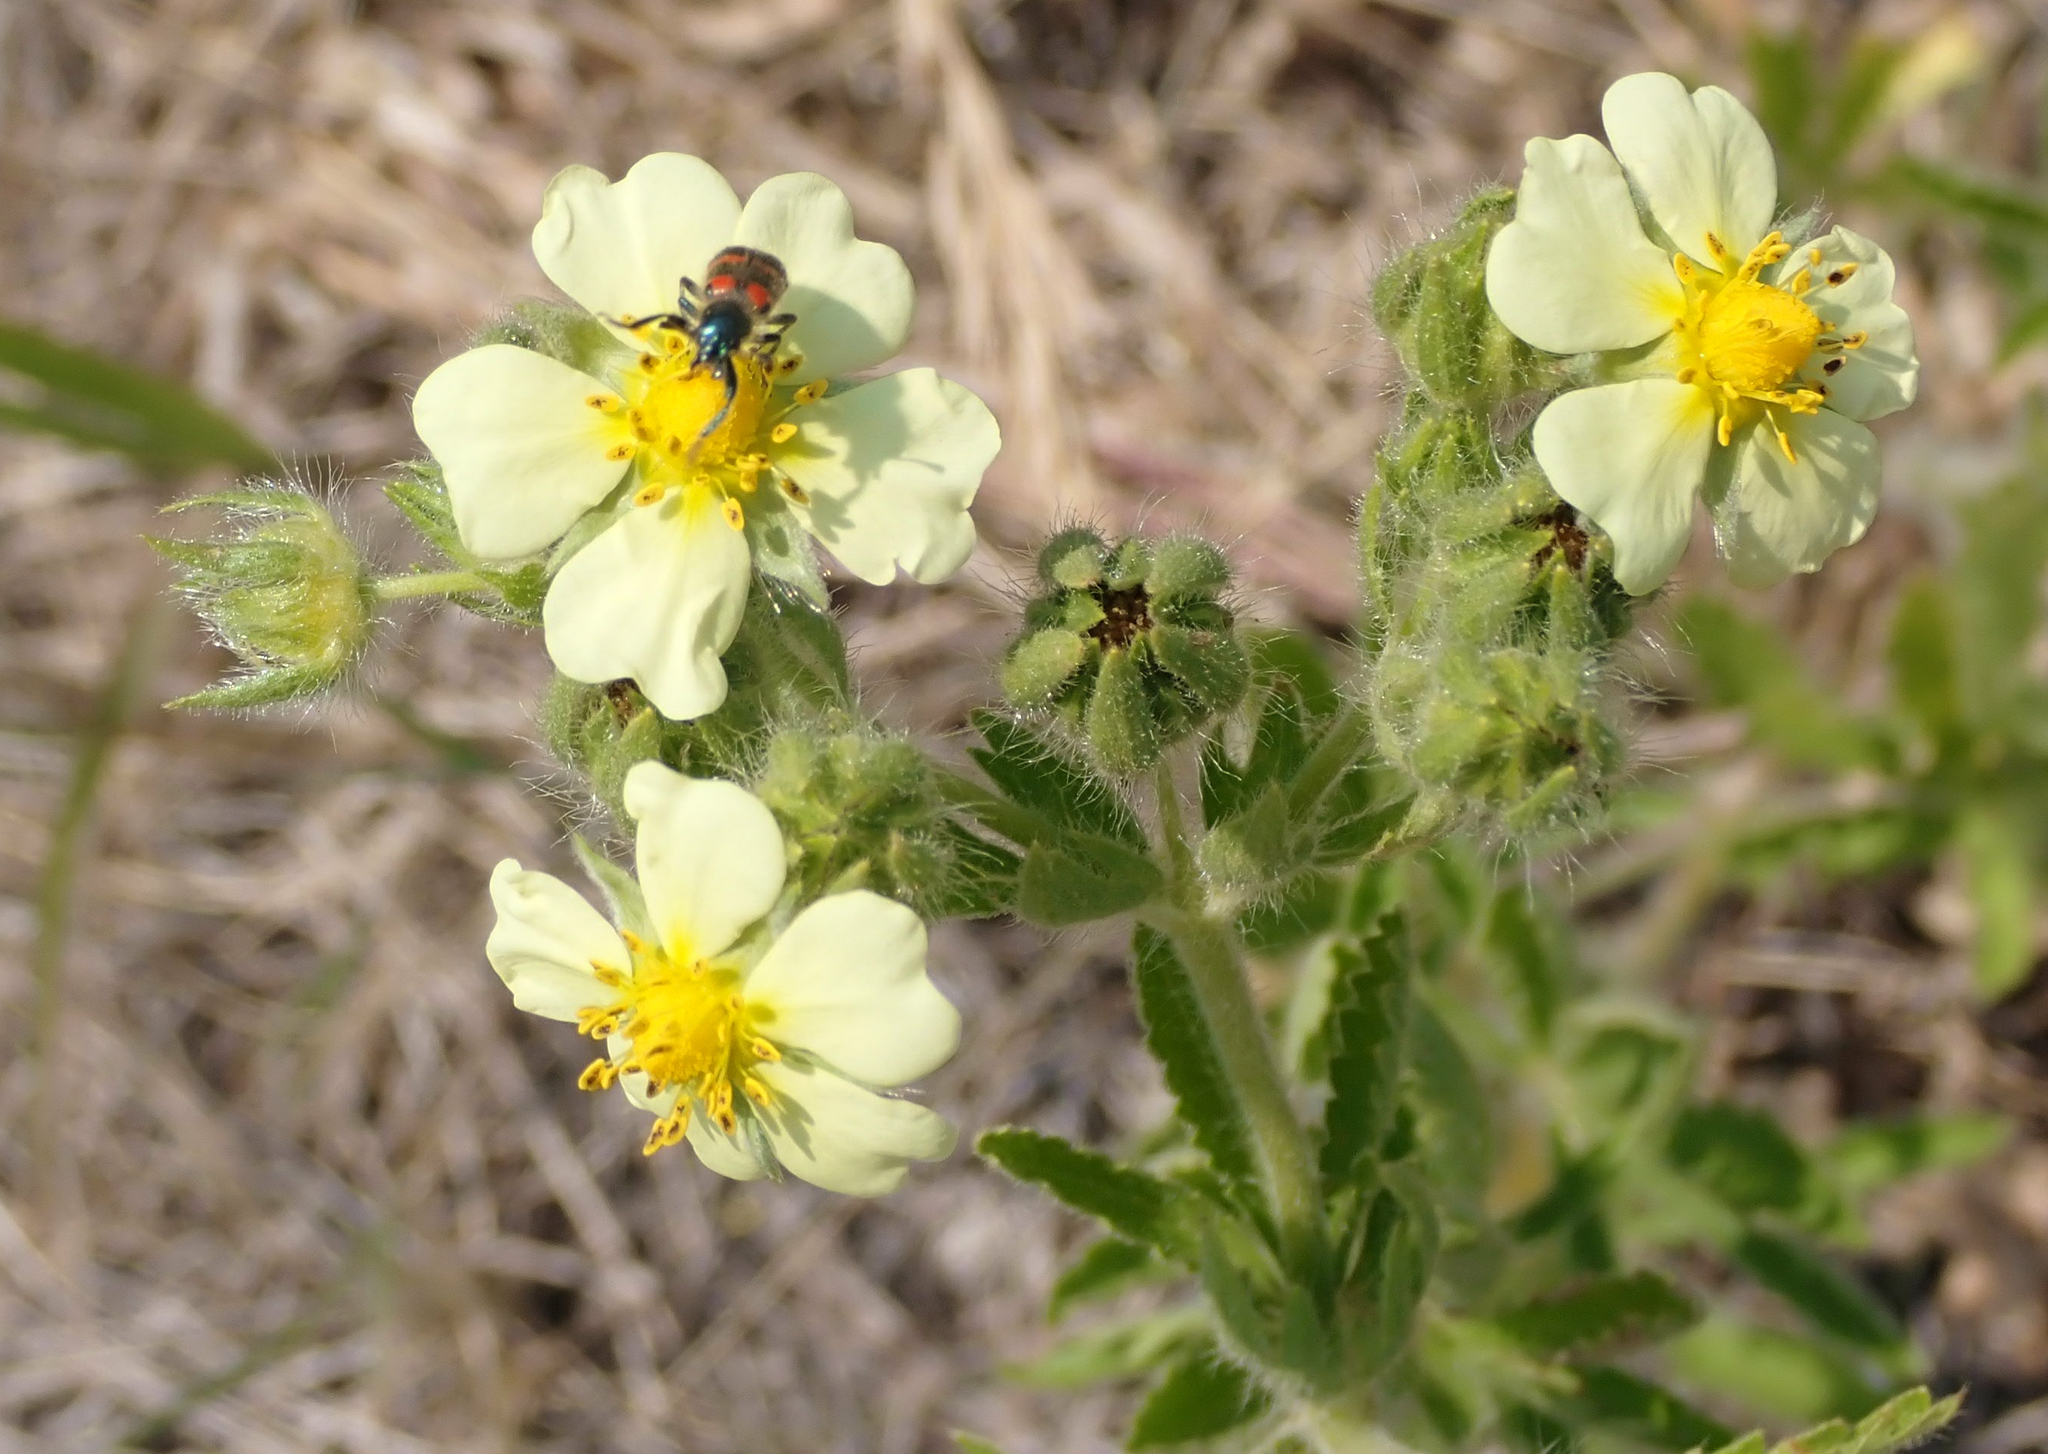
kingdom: Plantae
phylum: Tracheophyta
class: Magnoliopsida
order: Rosales
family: Rosaceae
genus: Potentilla
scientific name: Potentilla recta
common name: Sulphur cinquefoil
